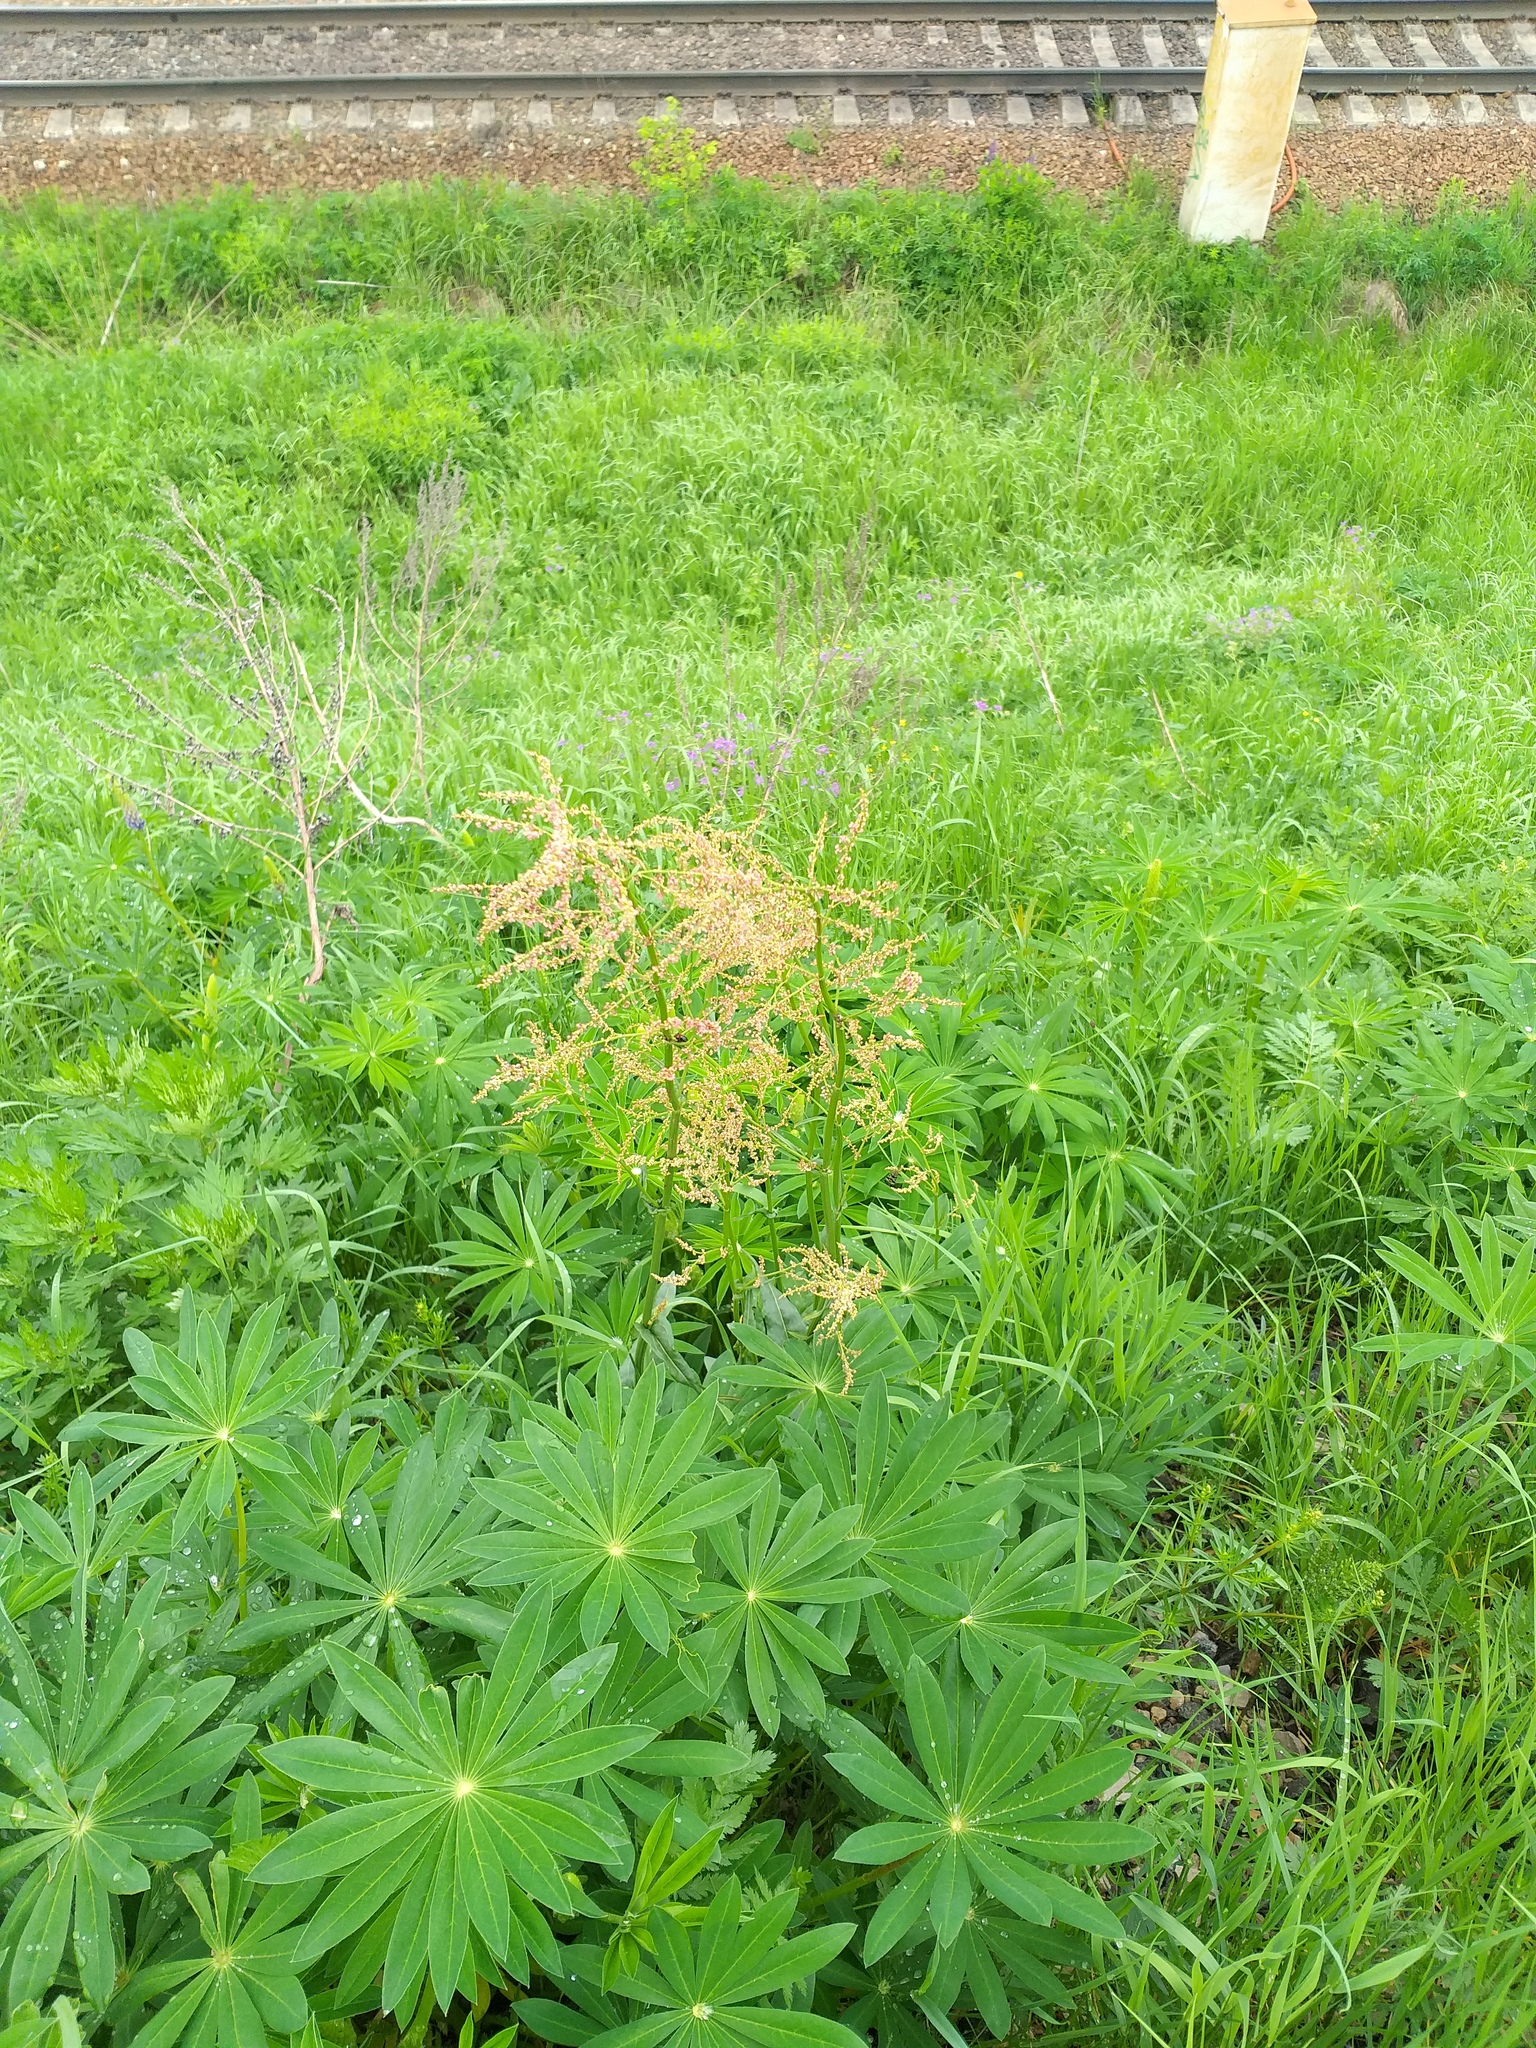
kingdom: Plantae
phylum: Tracheophyta
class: Magnoliopsida
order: Caryophyllales
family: Polygonaceae
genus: Rumex
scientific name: Rumex thyrsiflorus
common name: Garden sorrel
